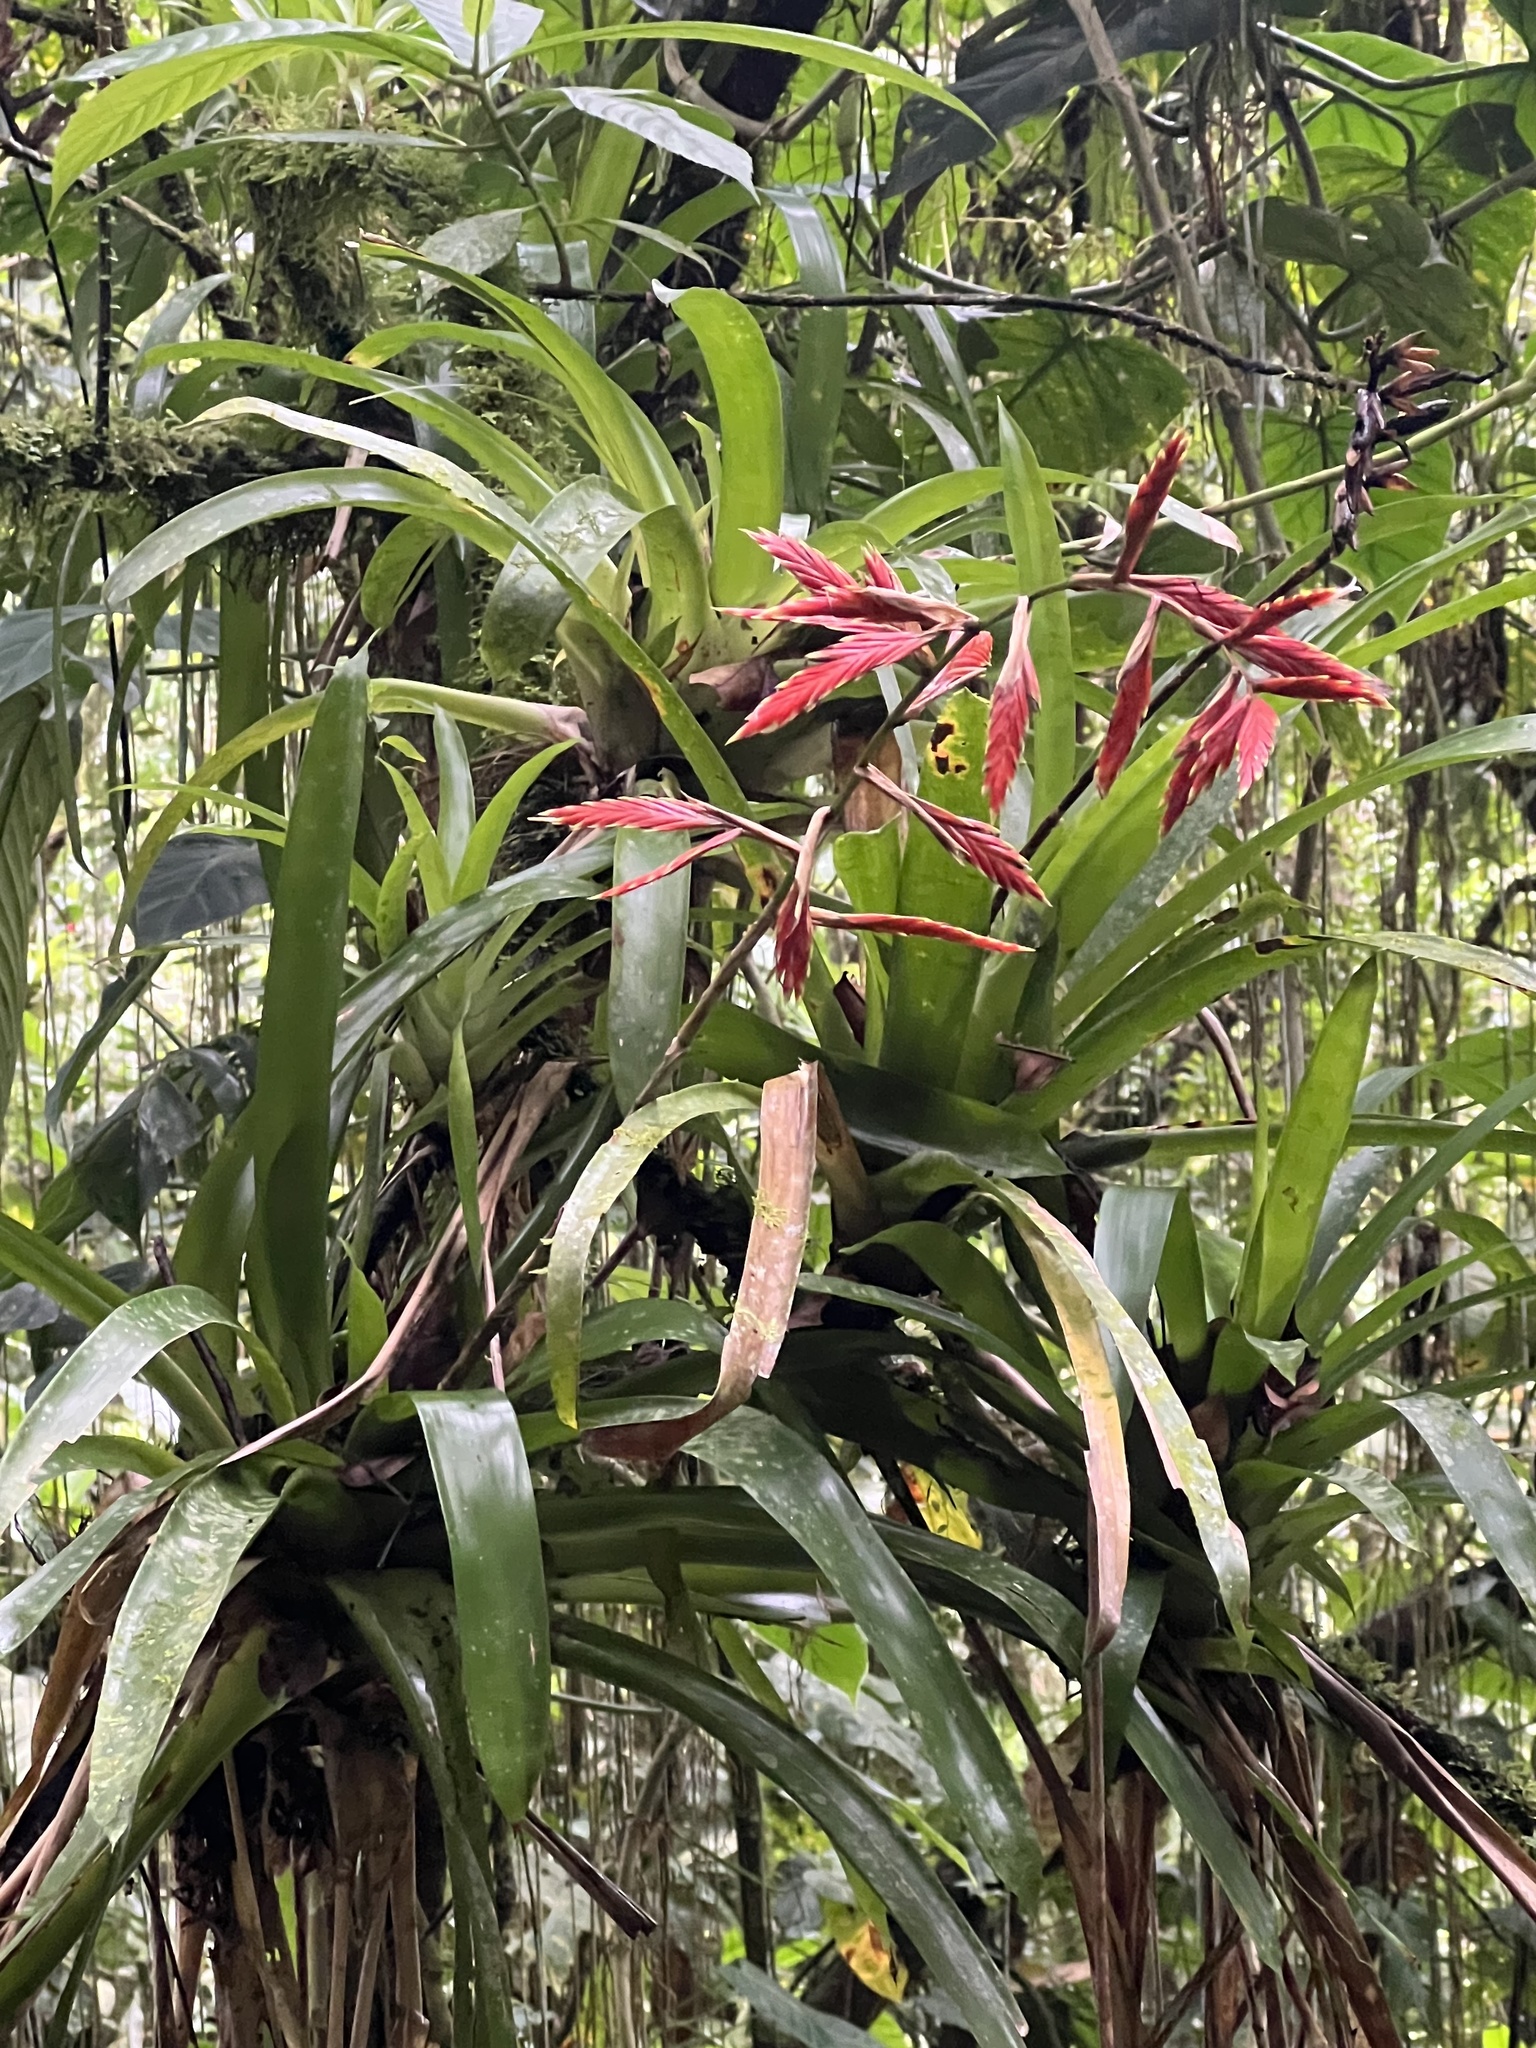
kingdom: Plantae
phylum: Tracheophyta
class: Liliopsida
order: Poales
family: Bromeliaceae
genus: Vriesea
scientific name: Vriesea elata
